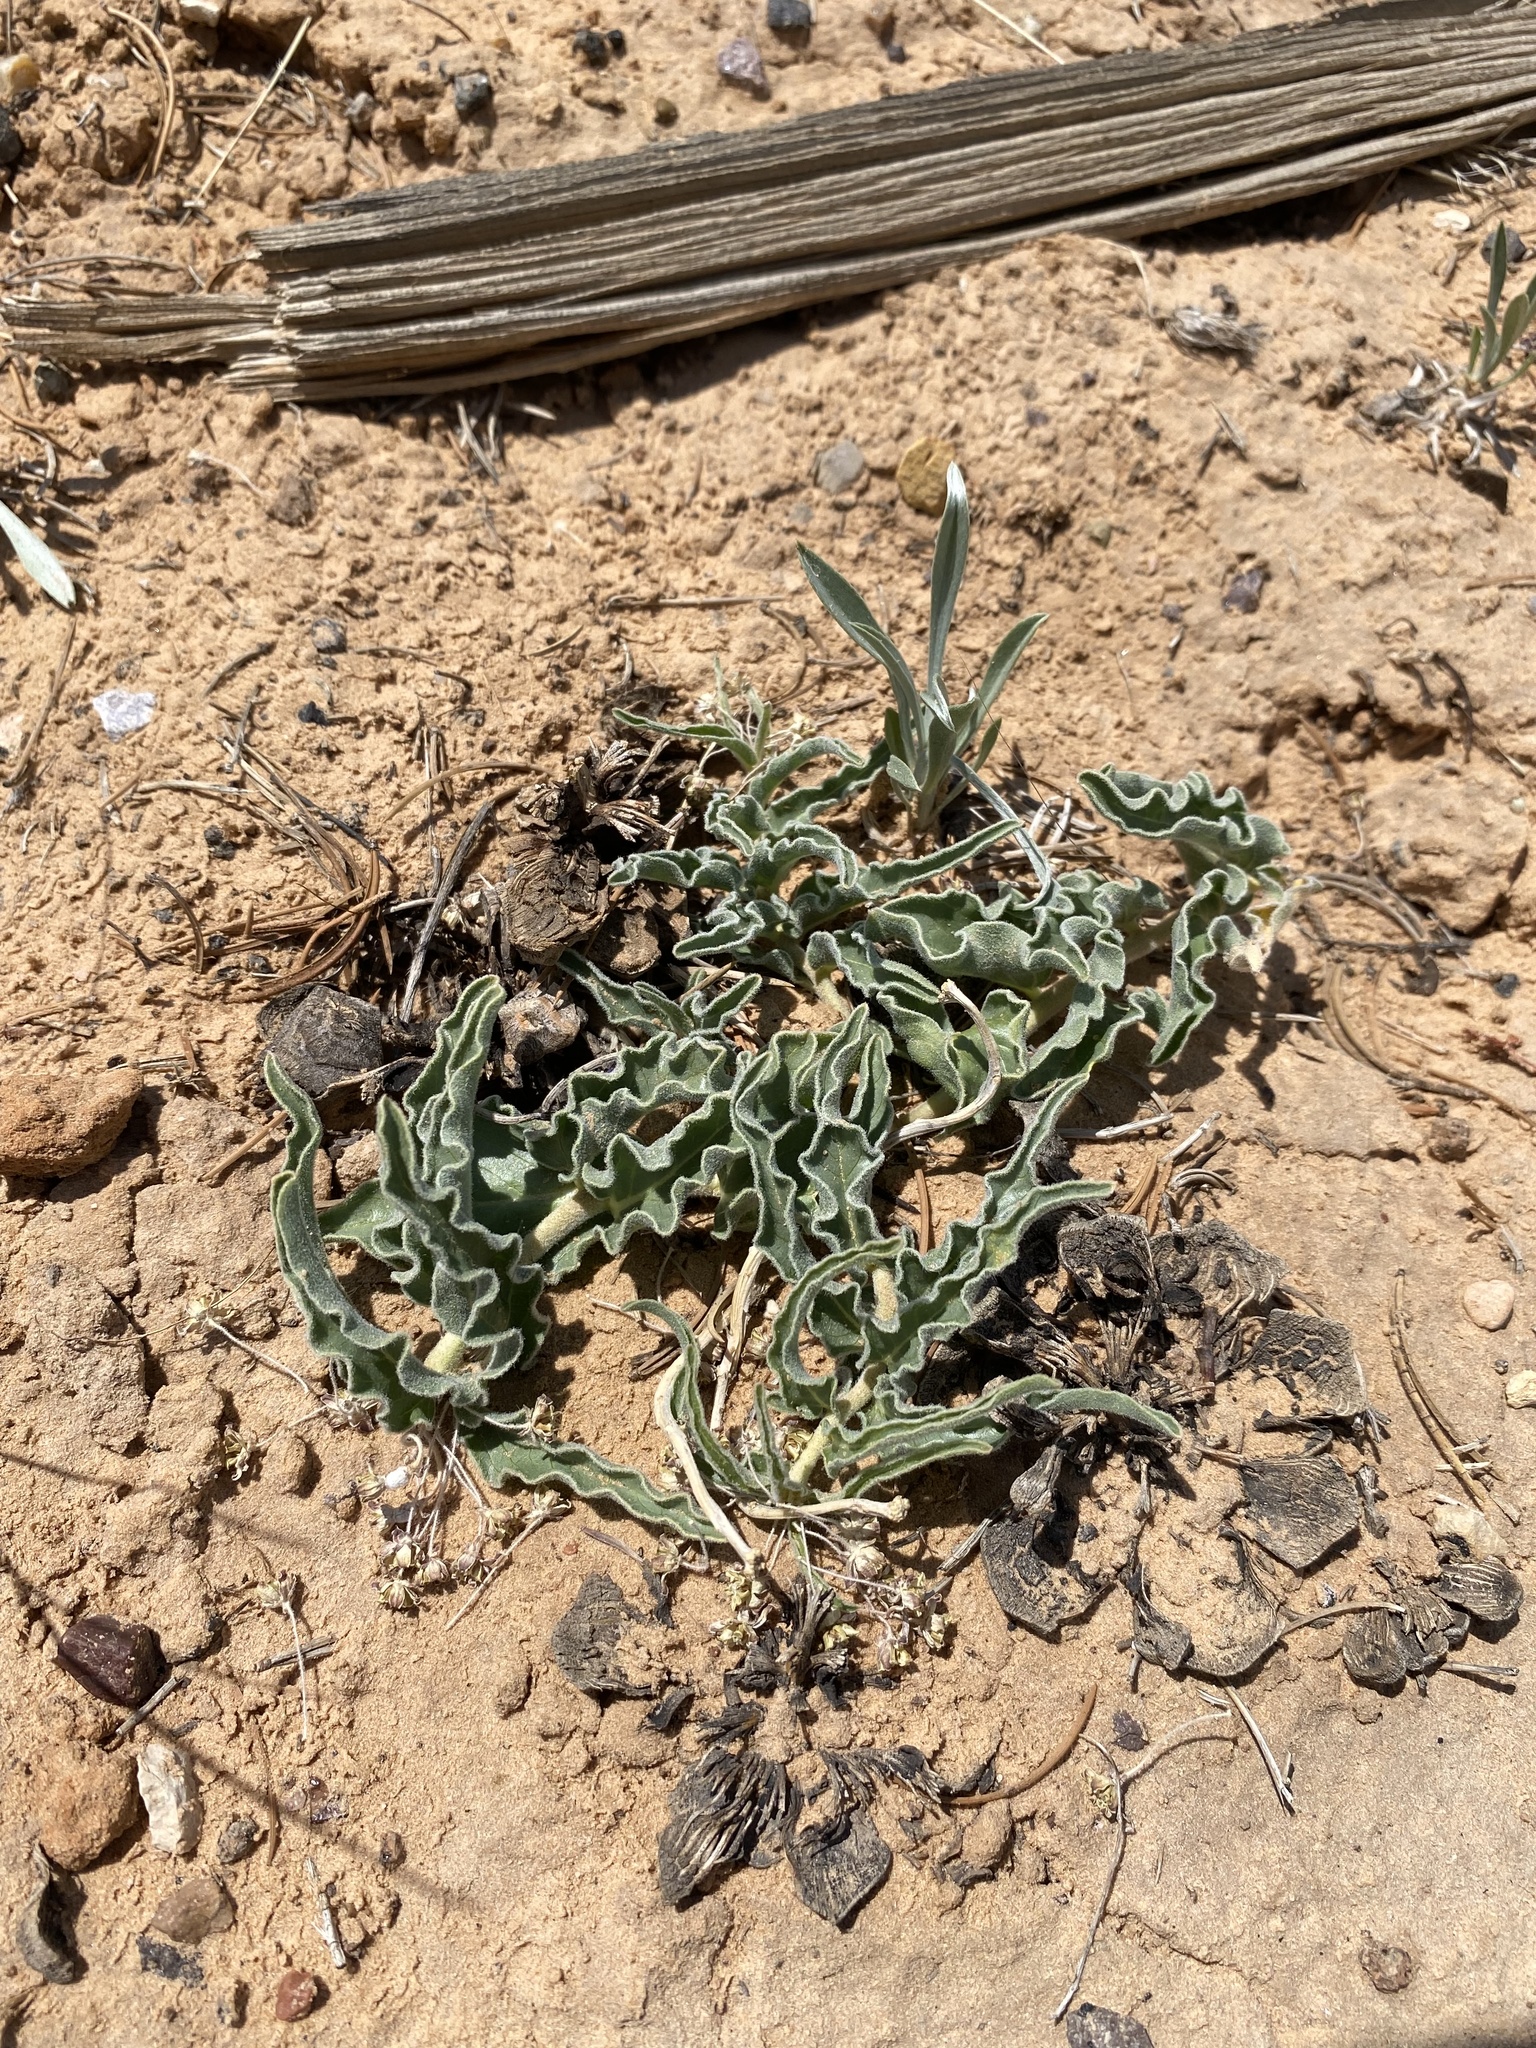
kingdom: Plantae
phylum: Tracheophyta
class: Magnoliopsida
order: Gentianales
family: Apocynaceae
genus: Asclepias
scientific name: Asclepias involucrata
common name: Dwarf milkweed
